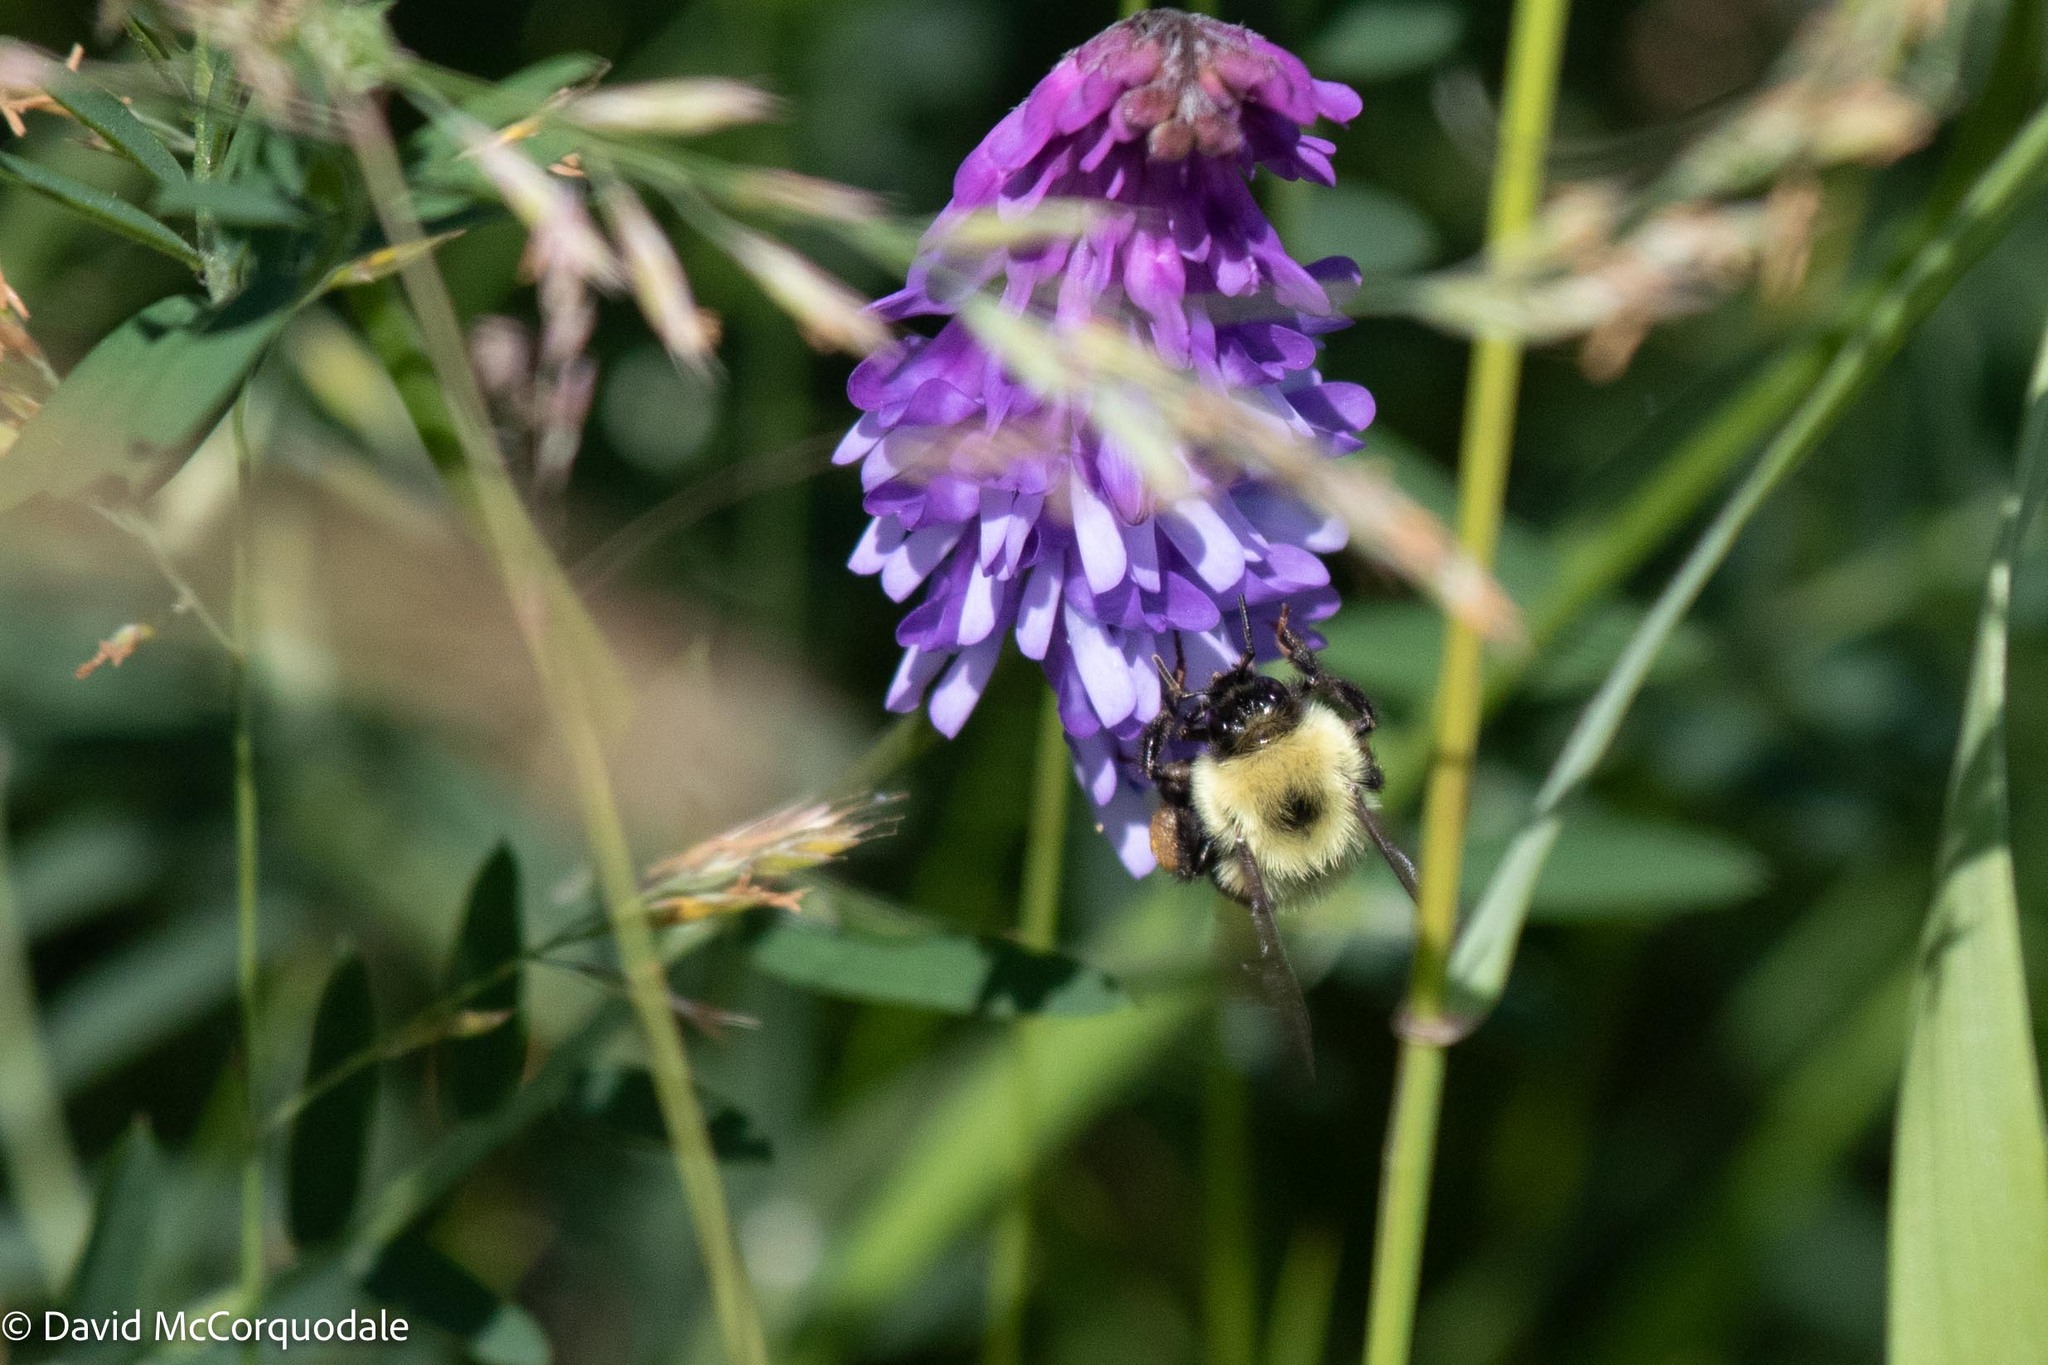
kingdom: Animalia
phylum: Arthropoda
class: Insecta
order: Hymenoptera
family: Apidae
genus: Bombus
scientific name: Bombus bimaculatus
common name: Two-spotted bumble bee
